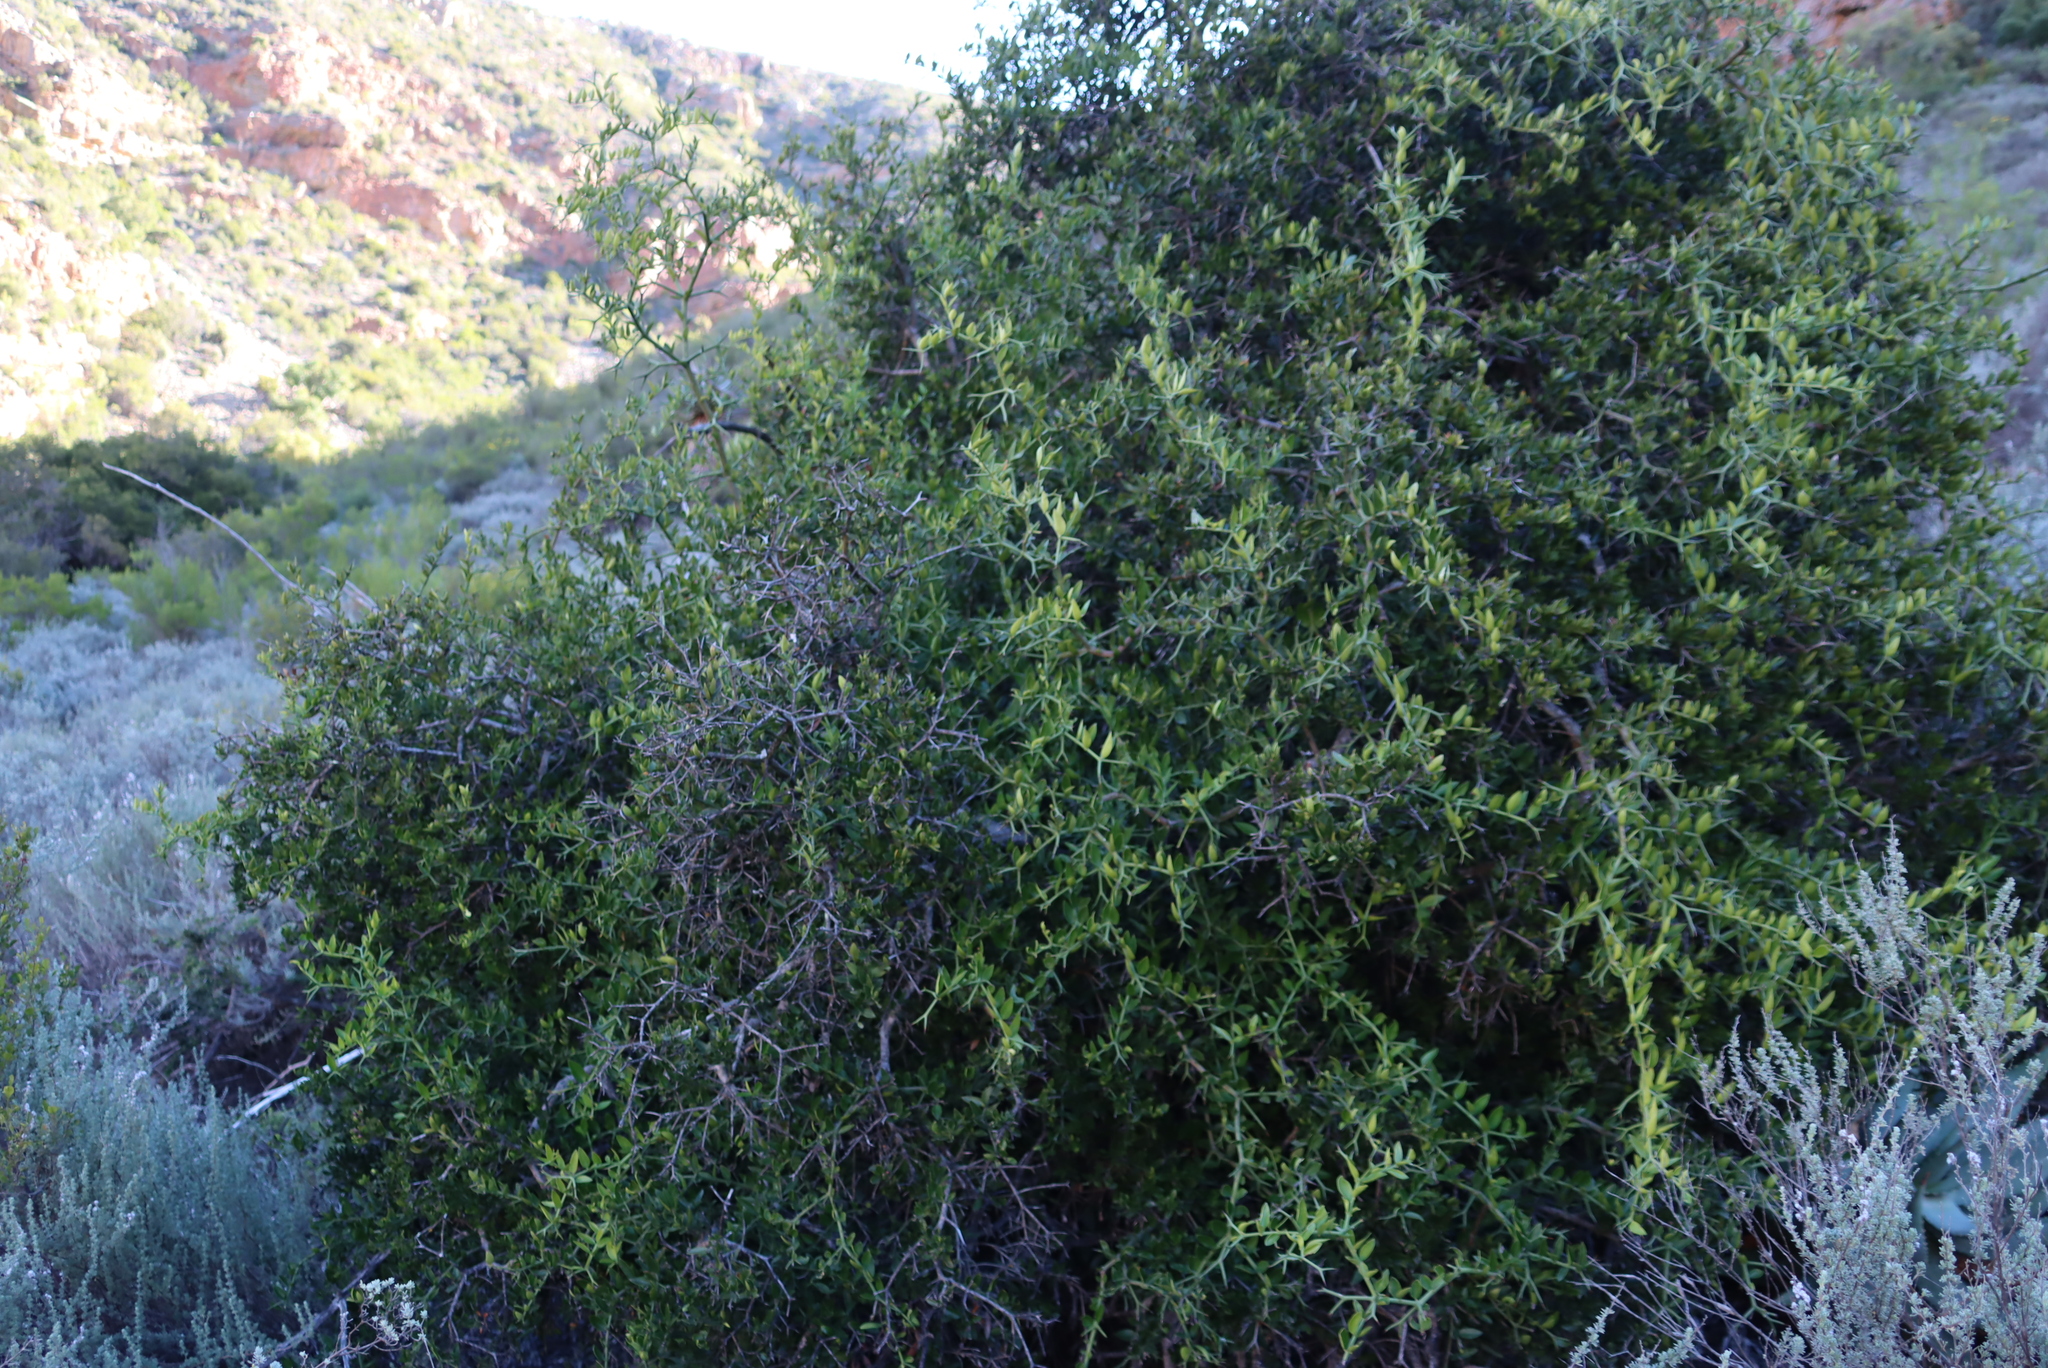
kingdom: Plantae
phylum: Tracheophyta
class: Magnoliopsida
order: Gentianales
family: Apocynaceae
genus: Carissa
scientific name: Carissa haematocarpa
